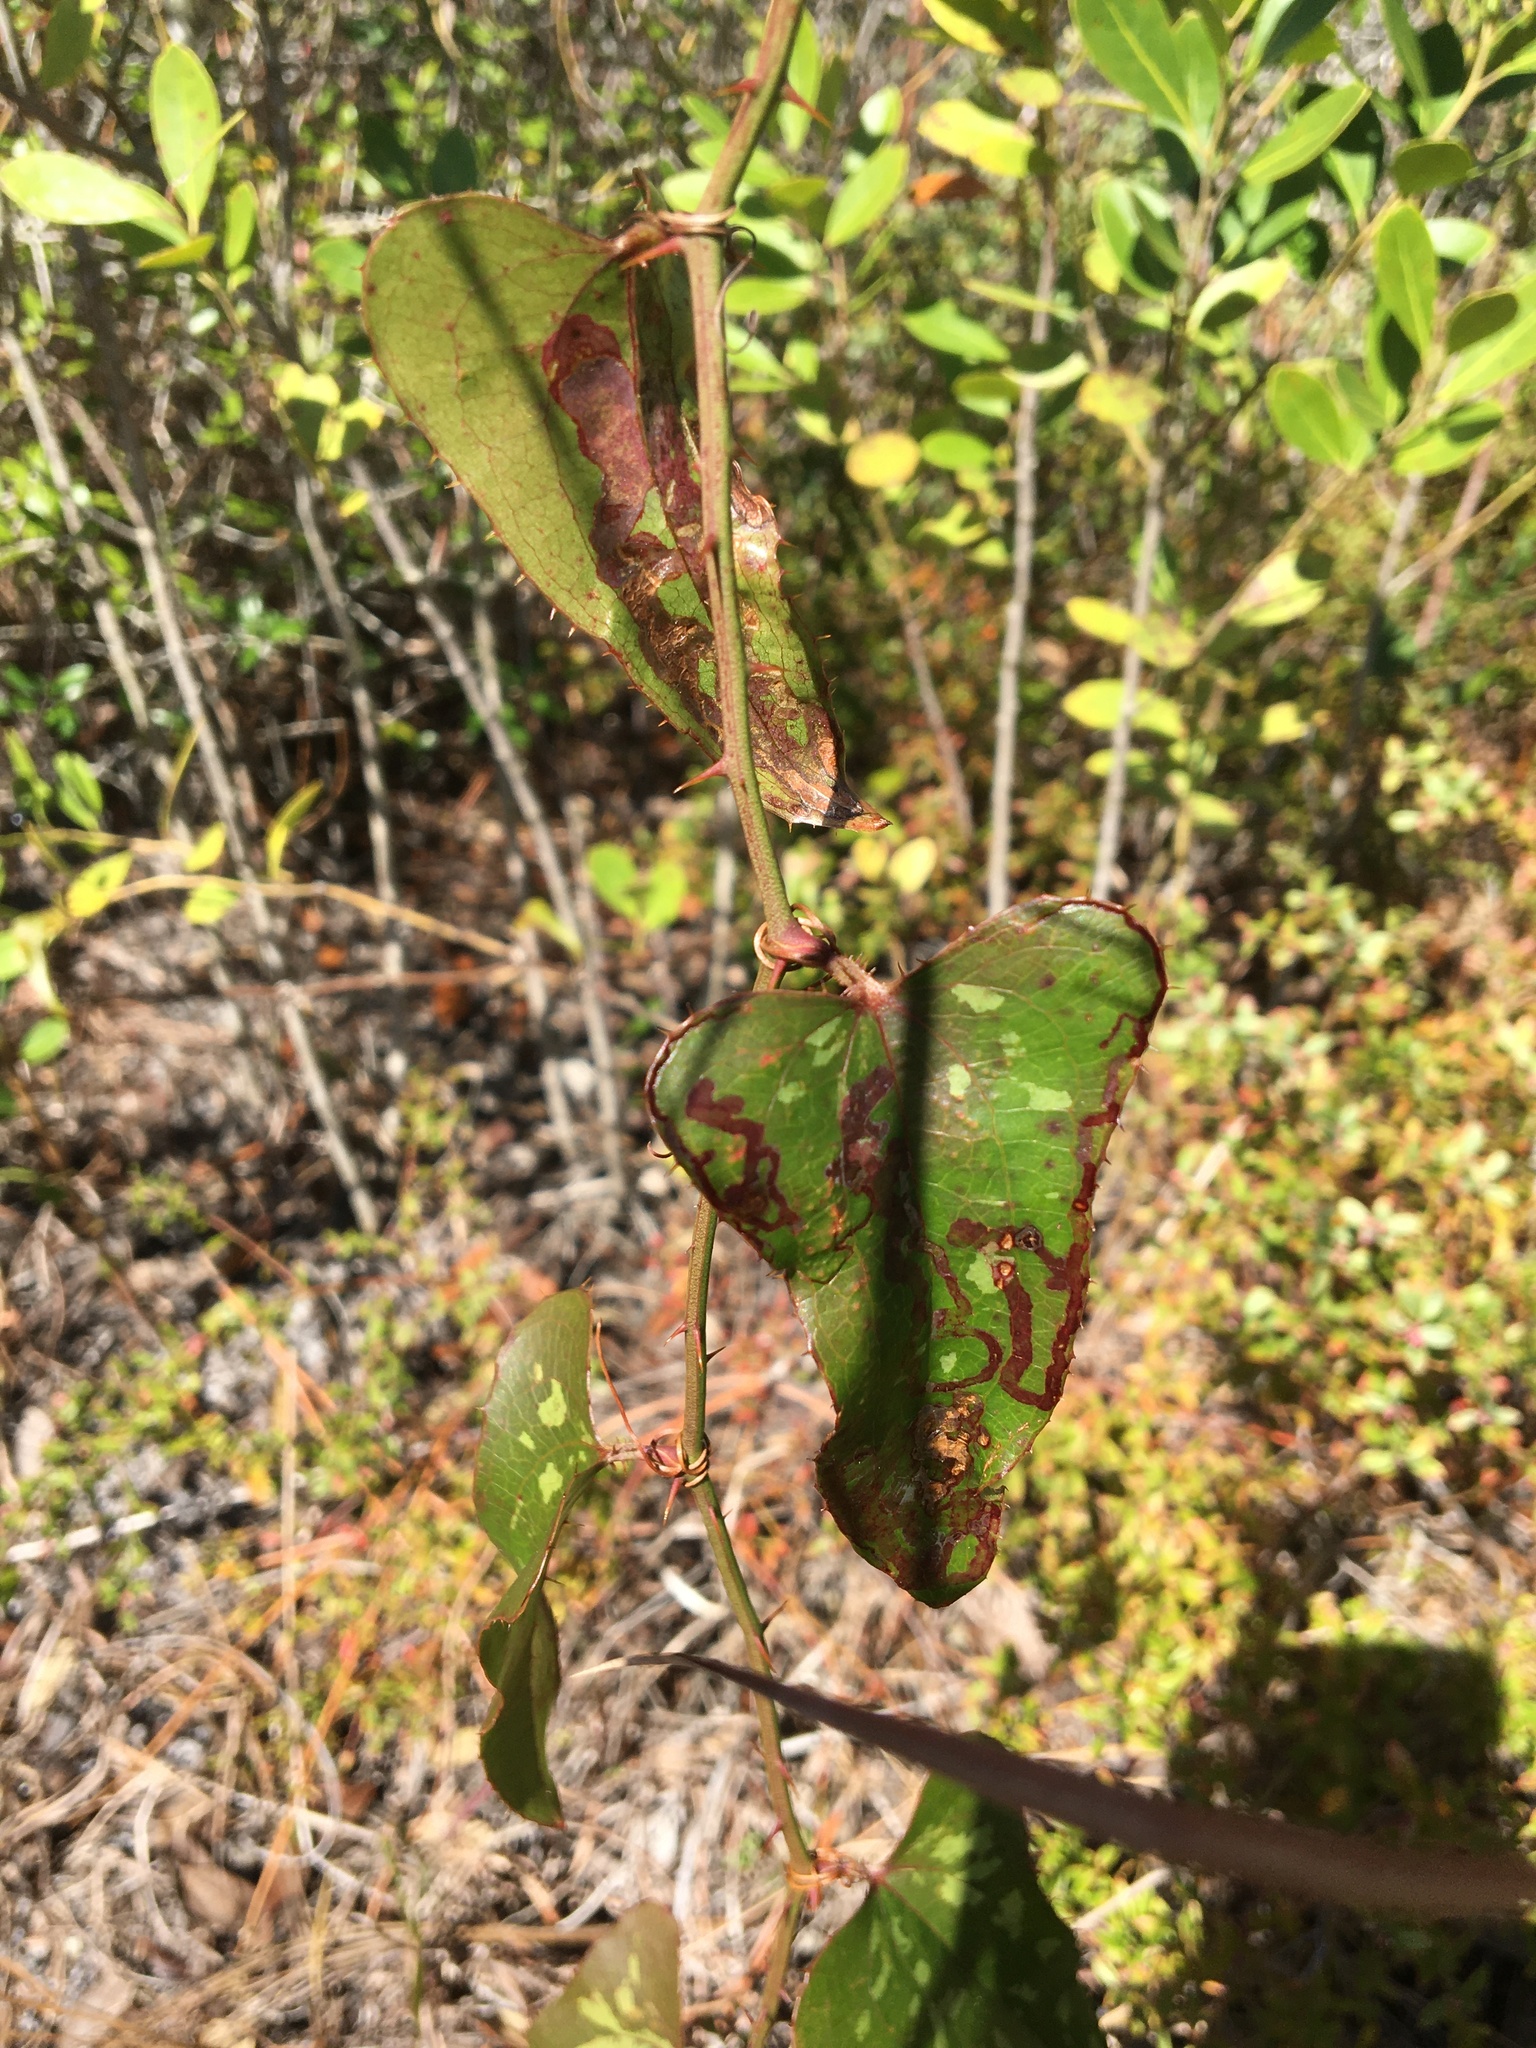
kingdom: Plantae
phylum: Tracheophyta
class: Liliopsida
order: Liliales
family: Smilacaceae
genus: Smilax
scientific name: Smilax bona-nox
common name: Catbrier
